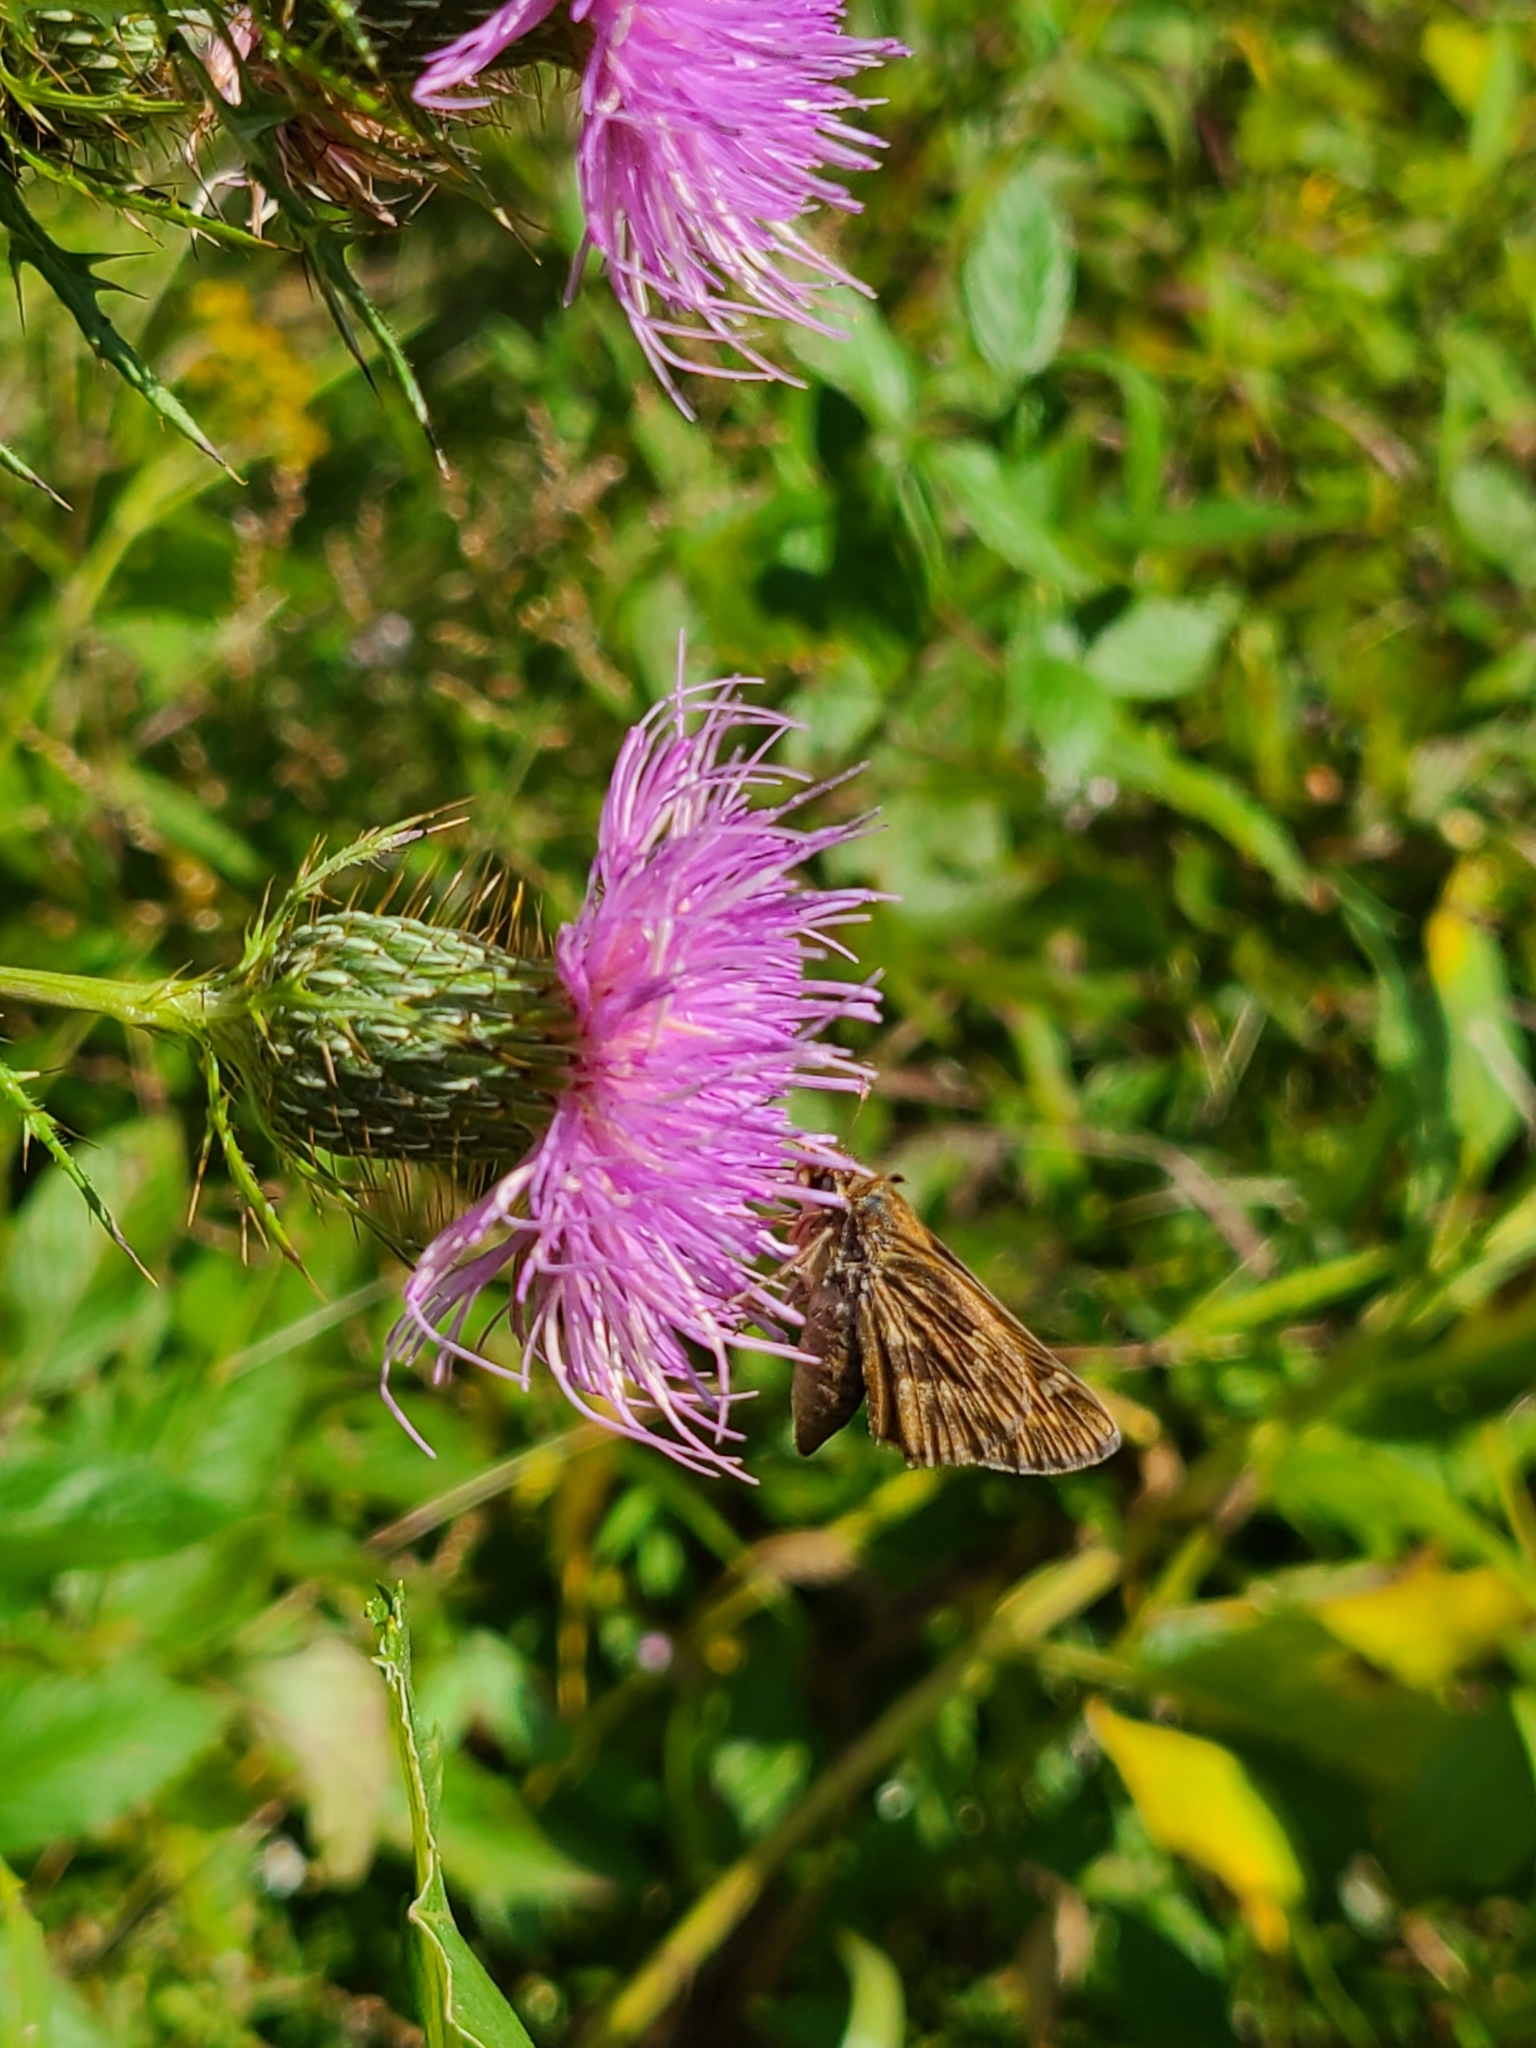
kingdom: Plantae
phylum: Tracheophyta
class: Magnoliopsida
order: Asterales
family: Asteraceae
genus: Cirsium
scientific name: Cirsium discolor
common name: Field thistle
